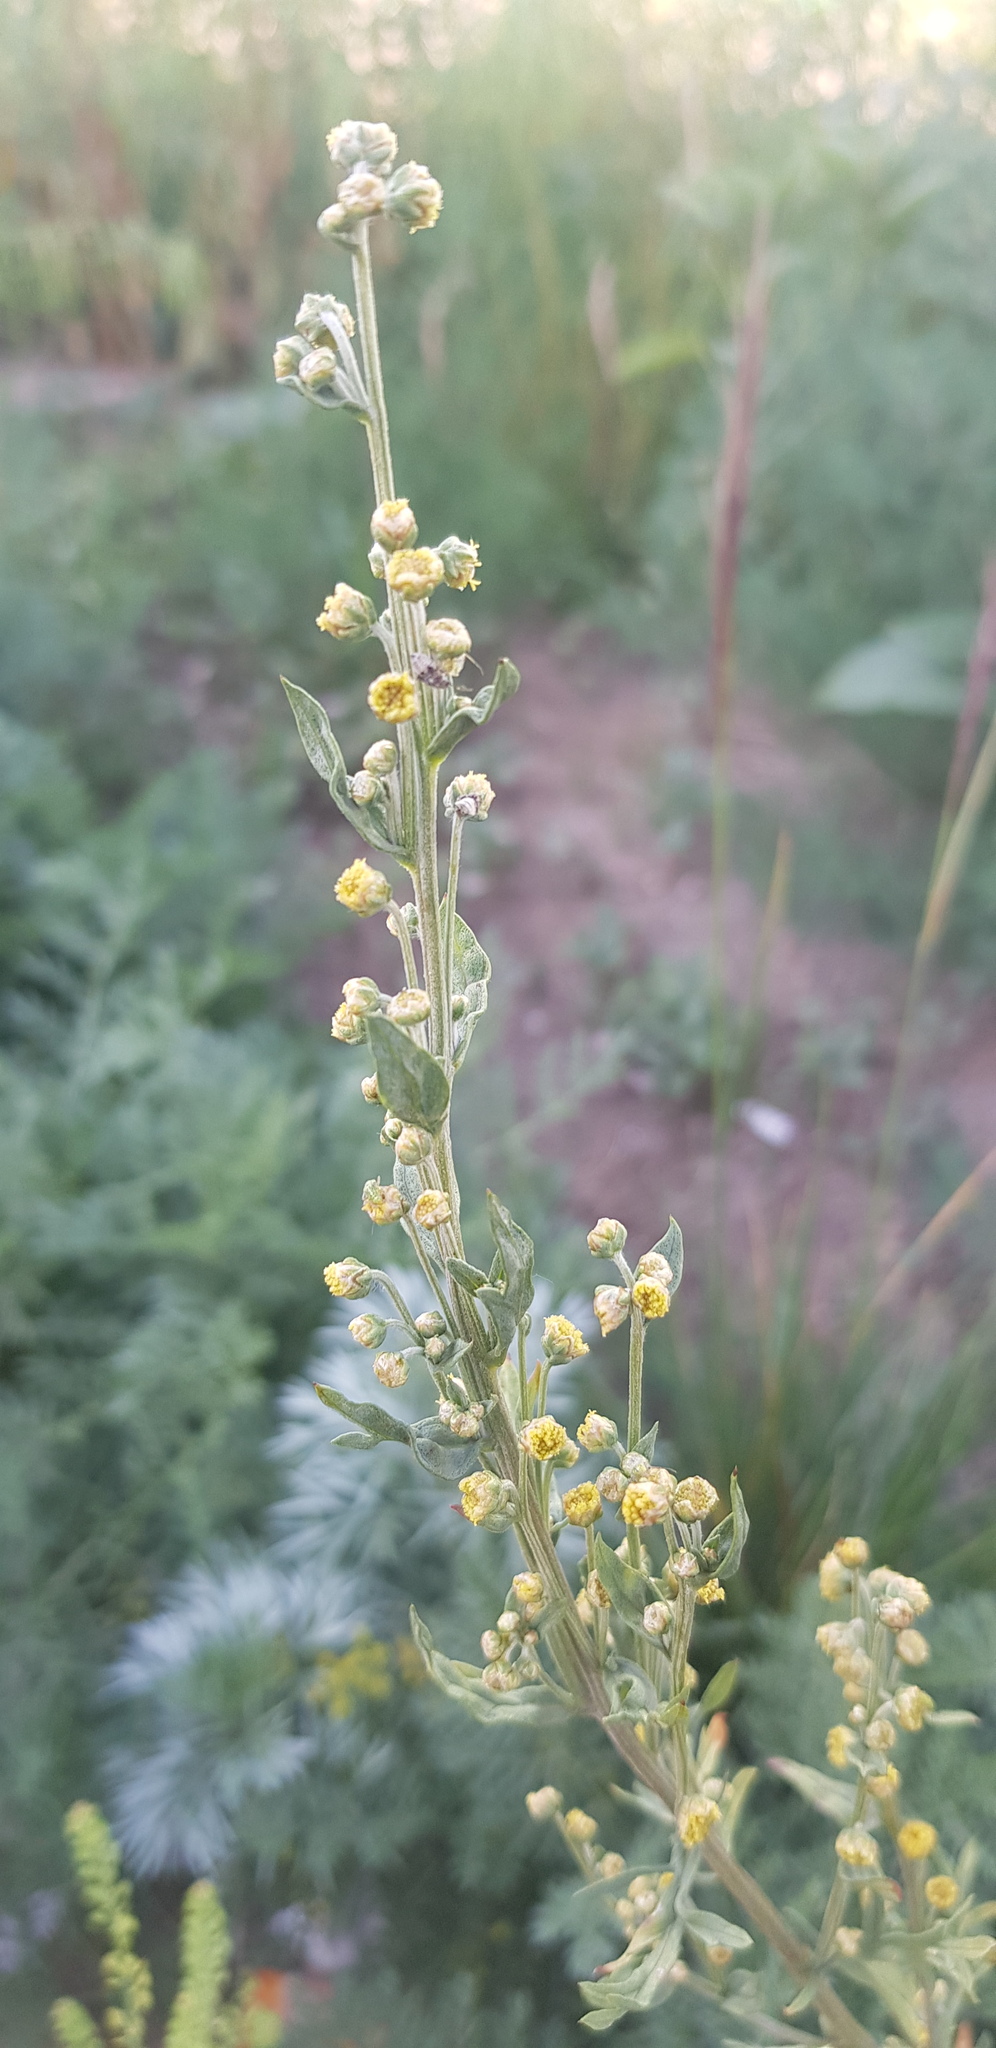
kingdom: Plantae
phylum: Tracheophyta
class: Magnoliopsida
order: Asterales
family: Asteraceae
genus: Artemisia
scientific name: Artemisia vulgaris
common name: Mugwort
